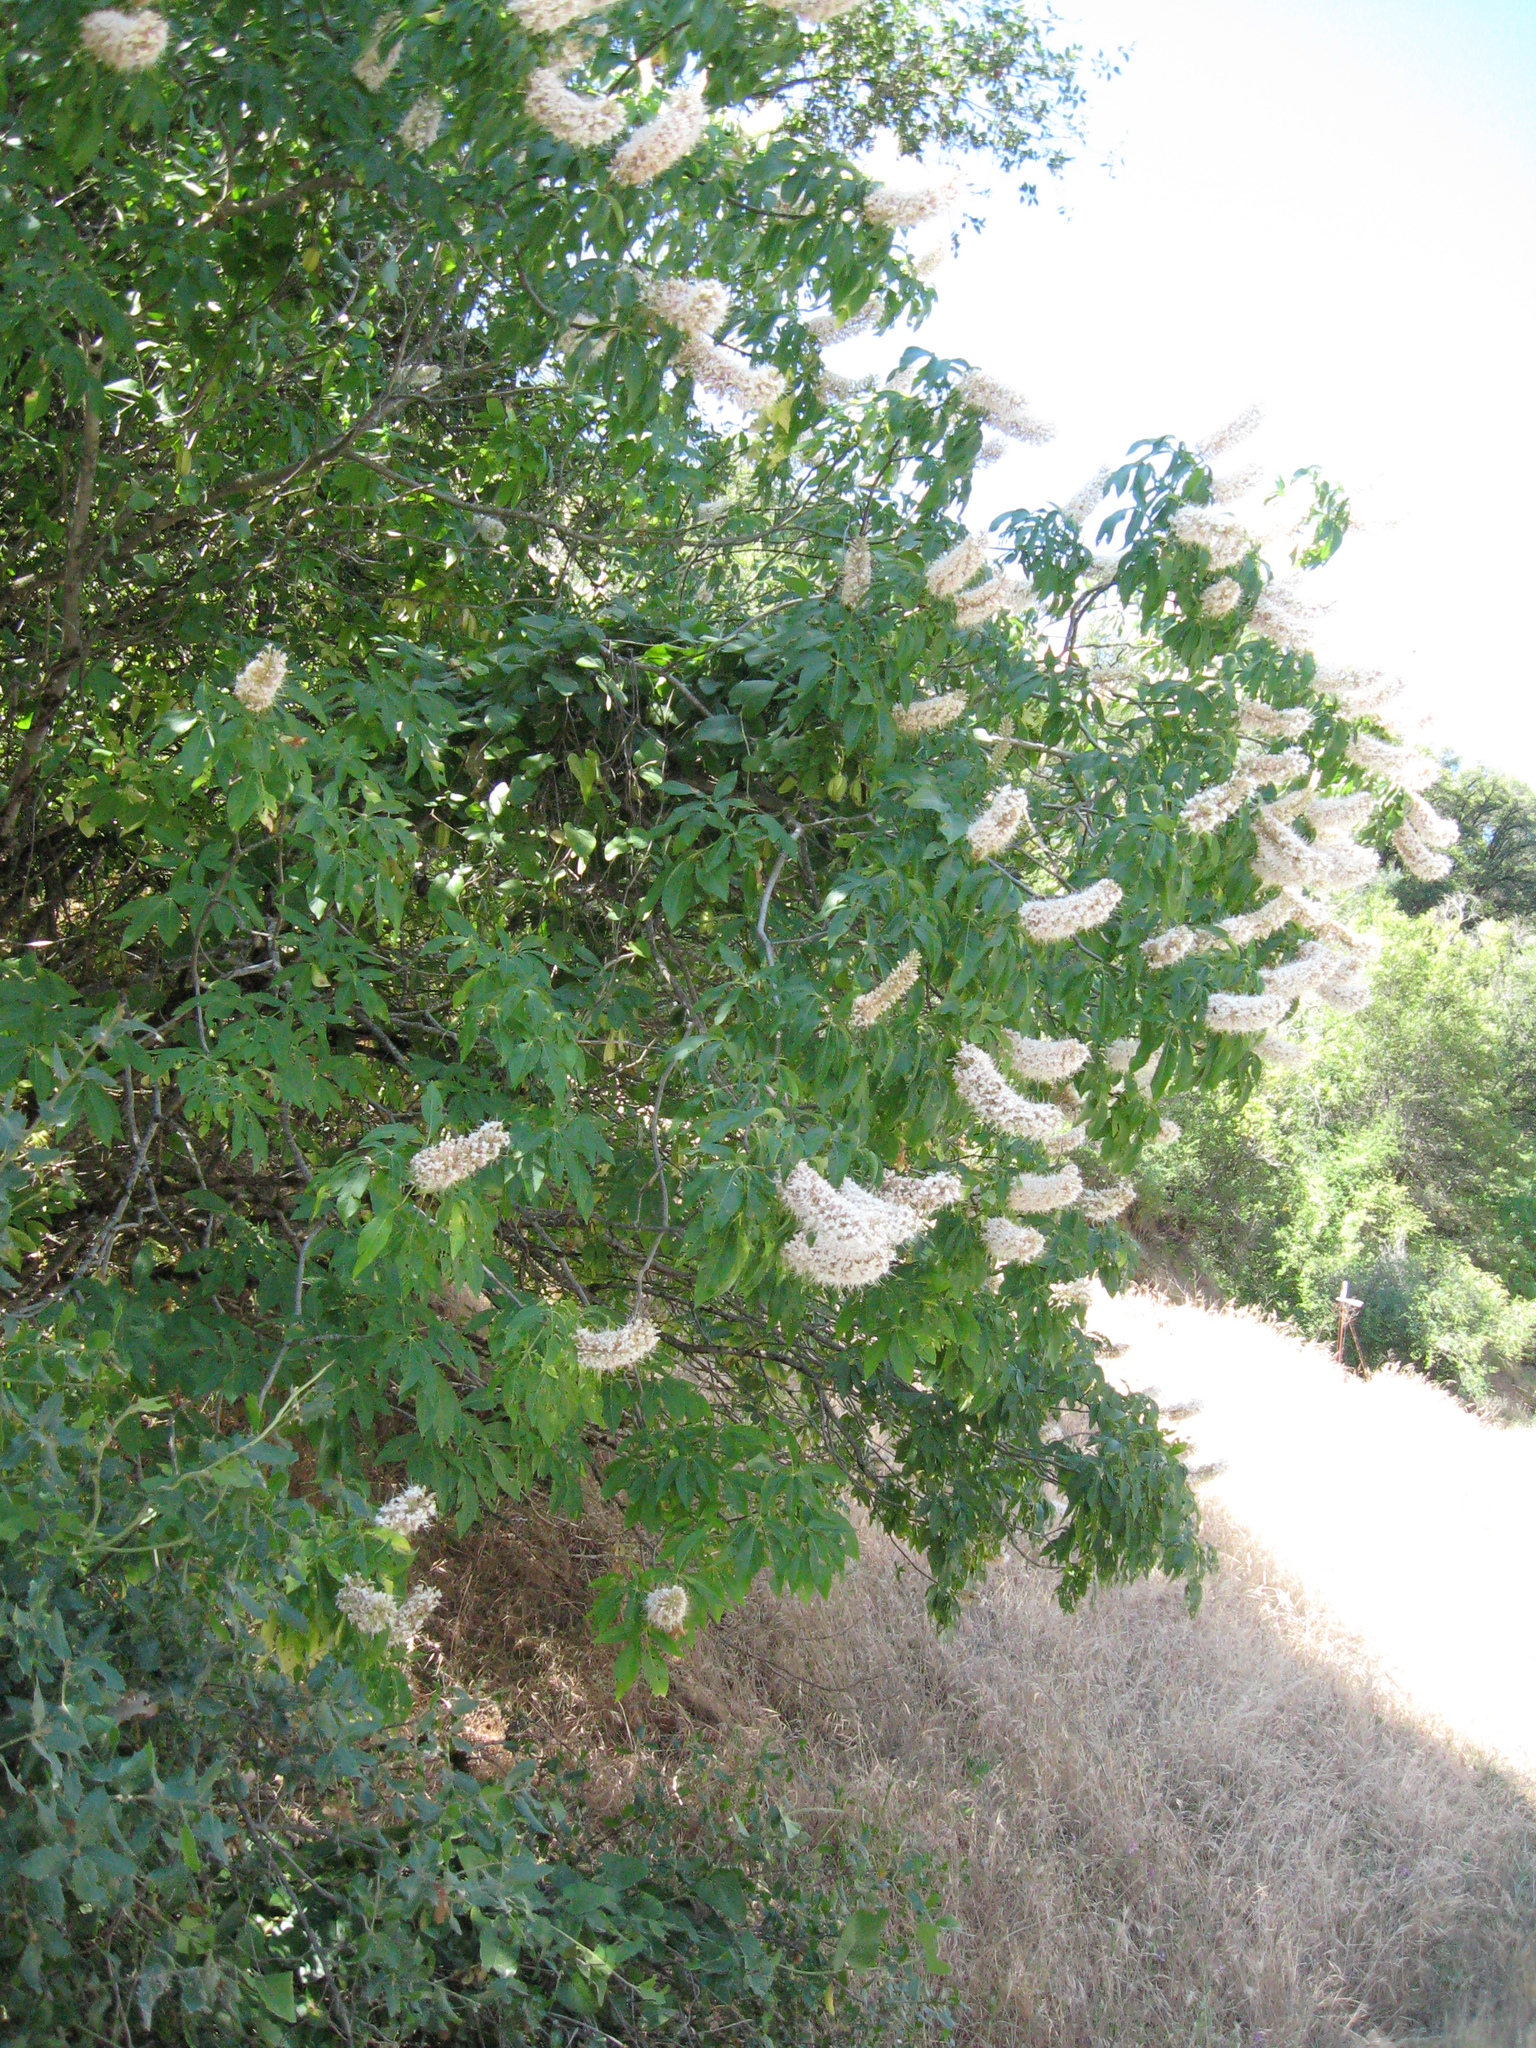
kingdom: Plantae
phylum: Tracheophyta
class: Magnoliopsida
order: Sapindales
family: Sapindaceae
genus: Aesculus
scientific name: Aesculus californica
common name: California buckeye
